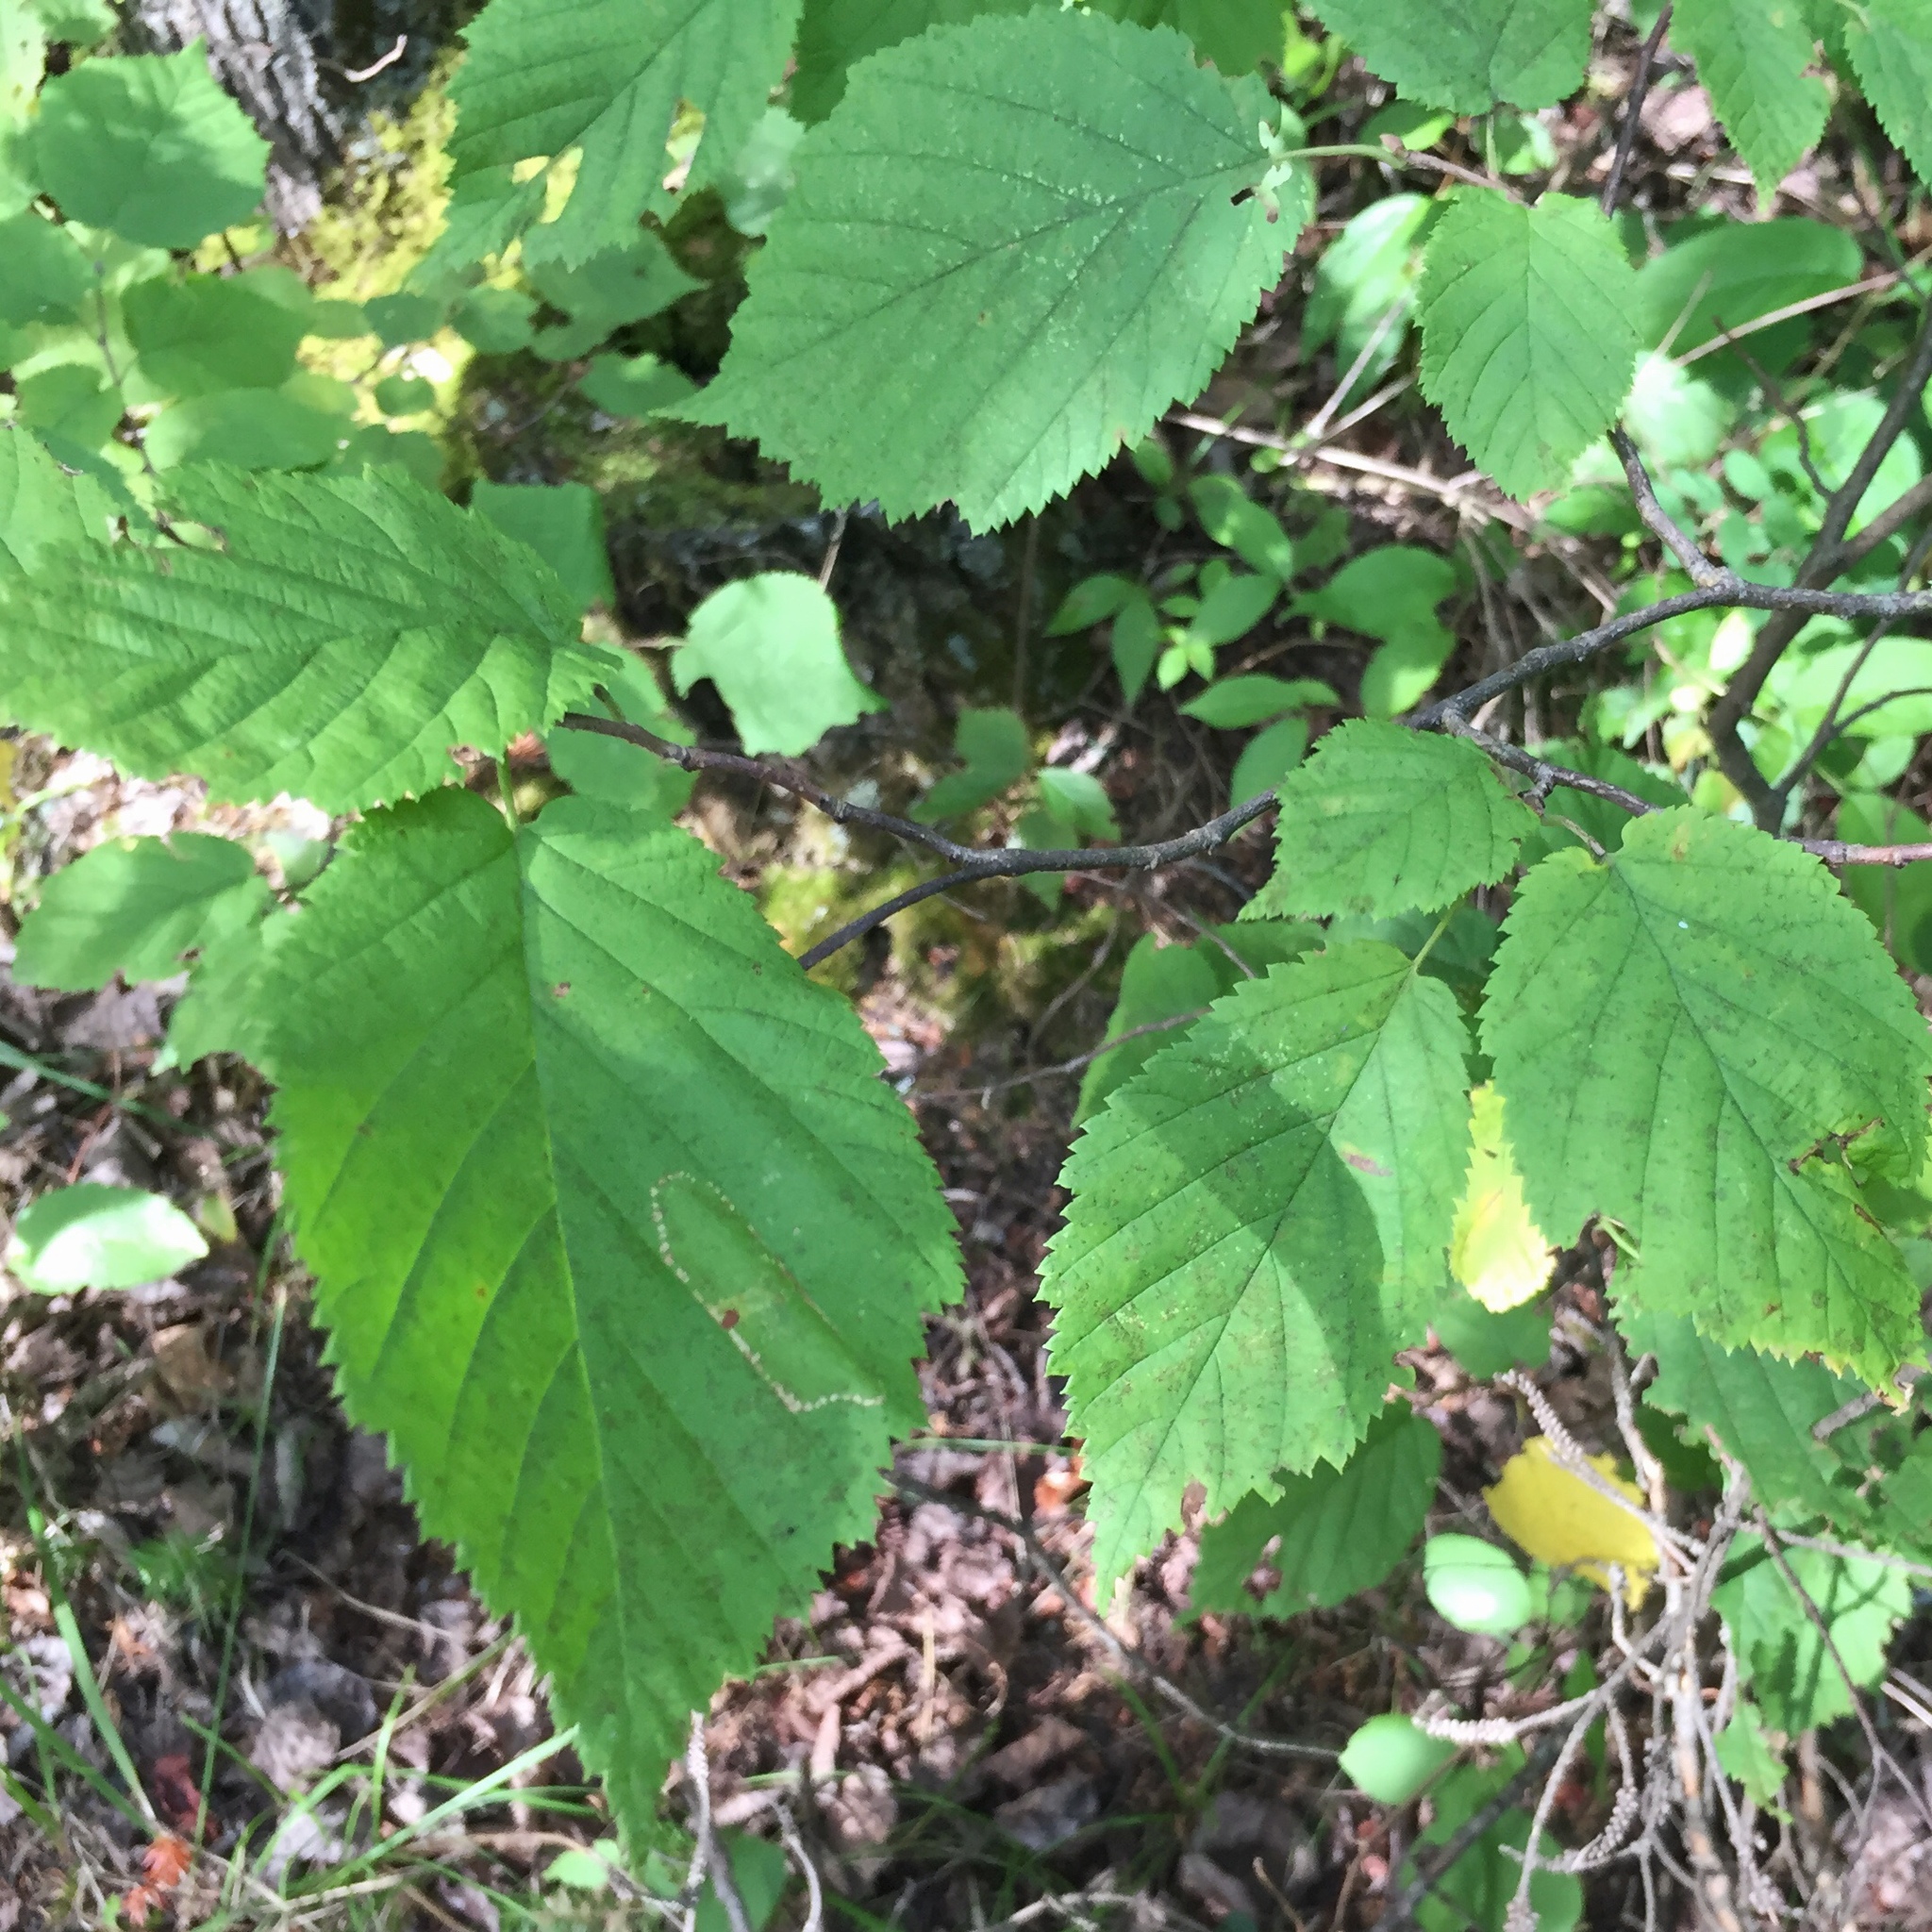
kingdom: Plantae
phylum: Tracheophyta
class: Magnoliopsida
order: Fagales
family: Betulaceae
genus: Corylus
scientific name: Corylus cornuta
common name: Beaked hazel
